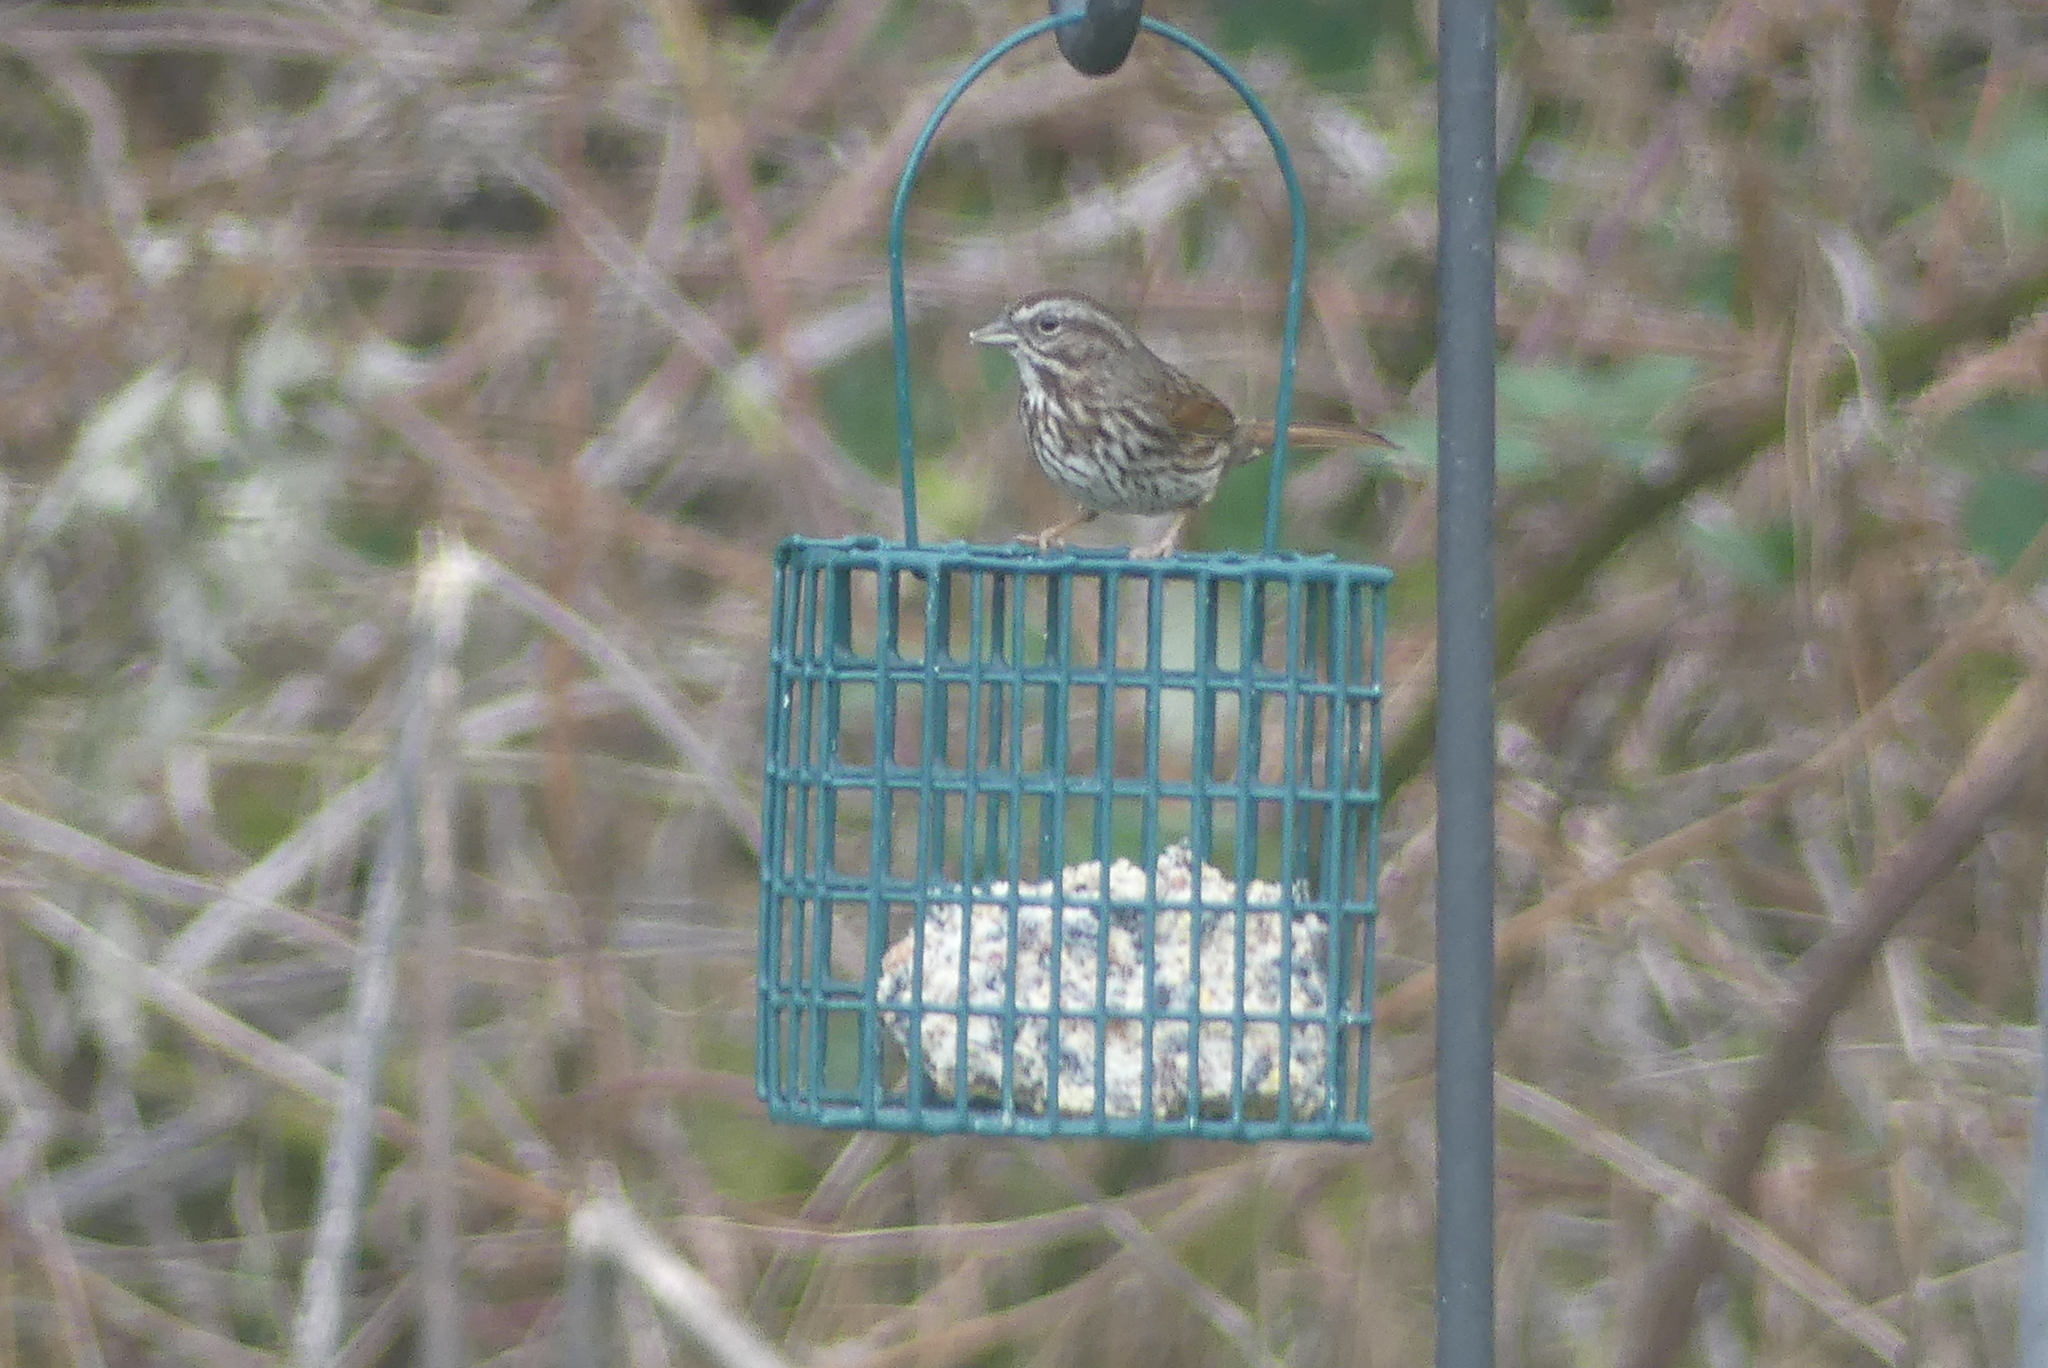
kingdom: Animalia
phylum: Chordata
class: Aves
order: Passeriformes
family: Passerellidae
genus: Melospiza
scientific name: Melospiza melodia
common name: Song sparrow
